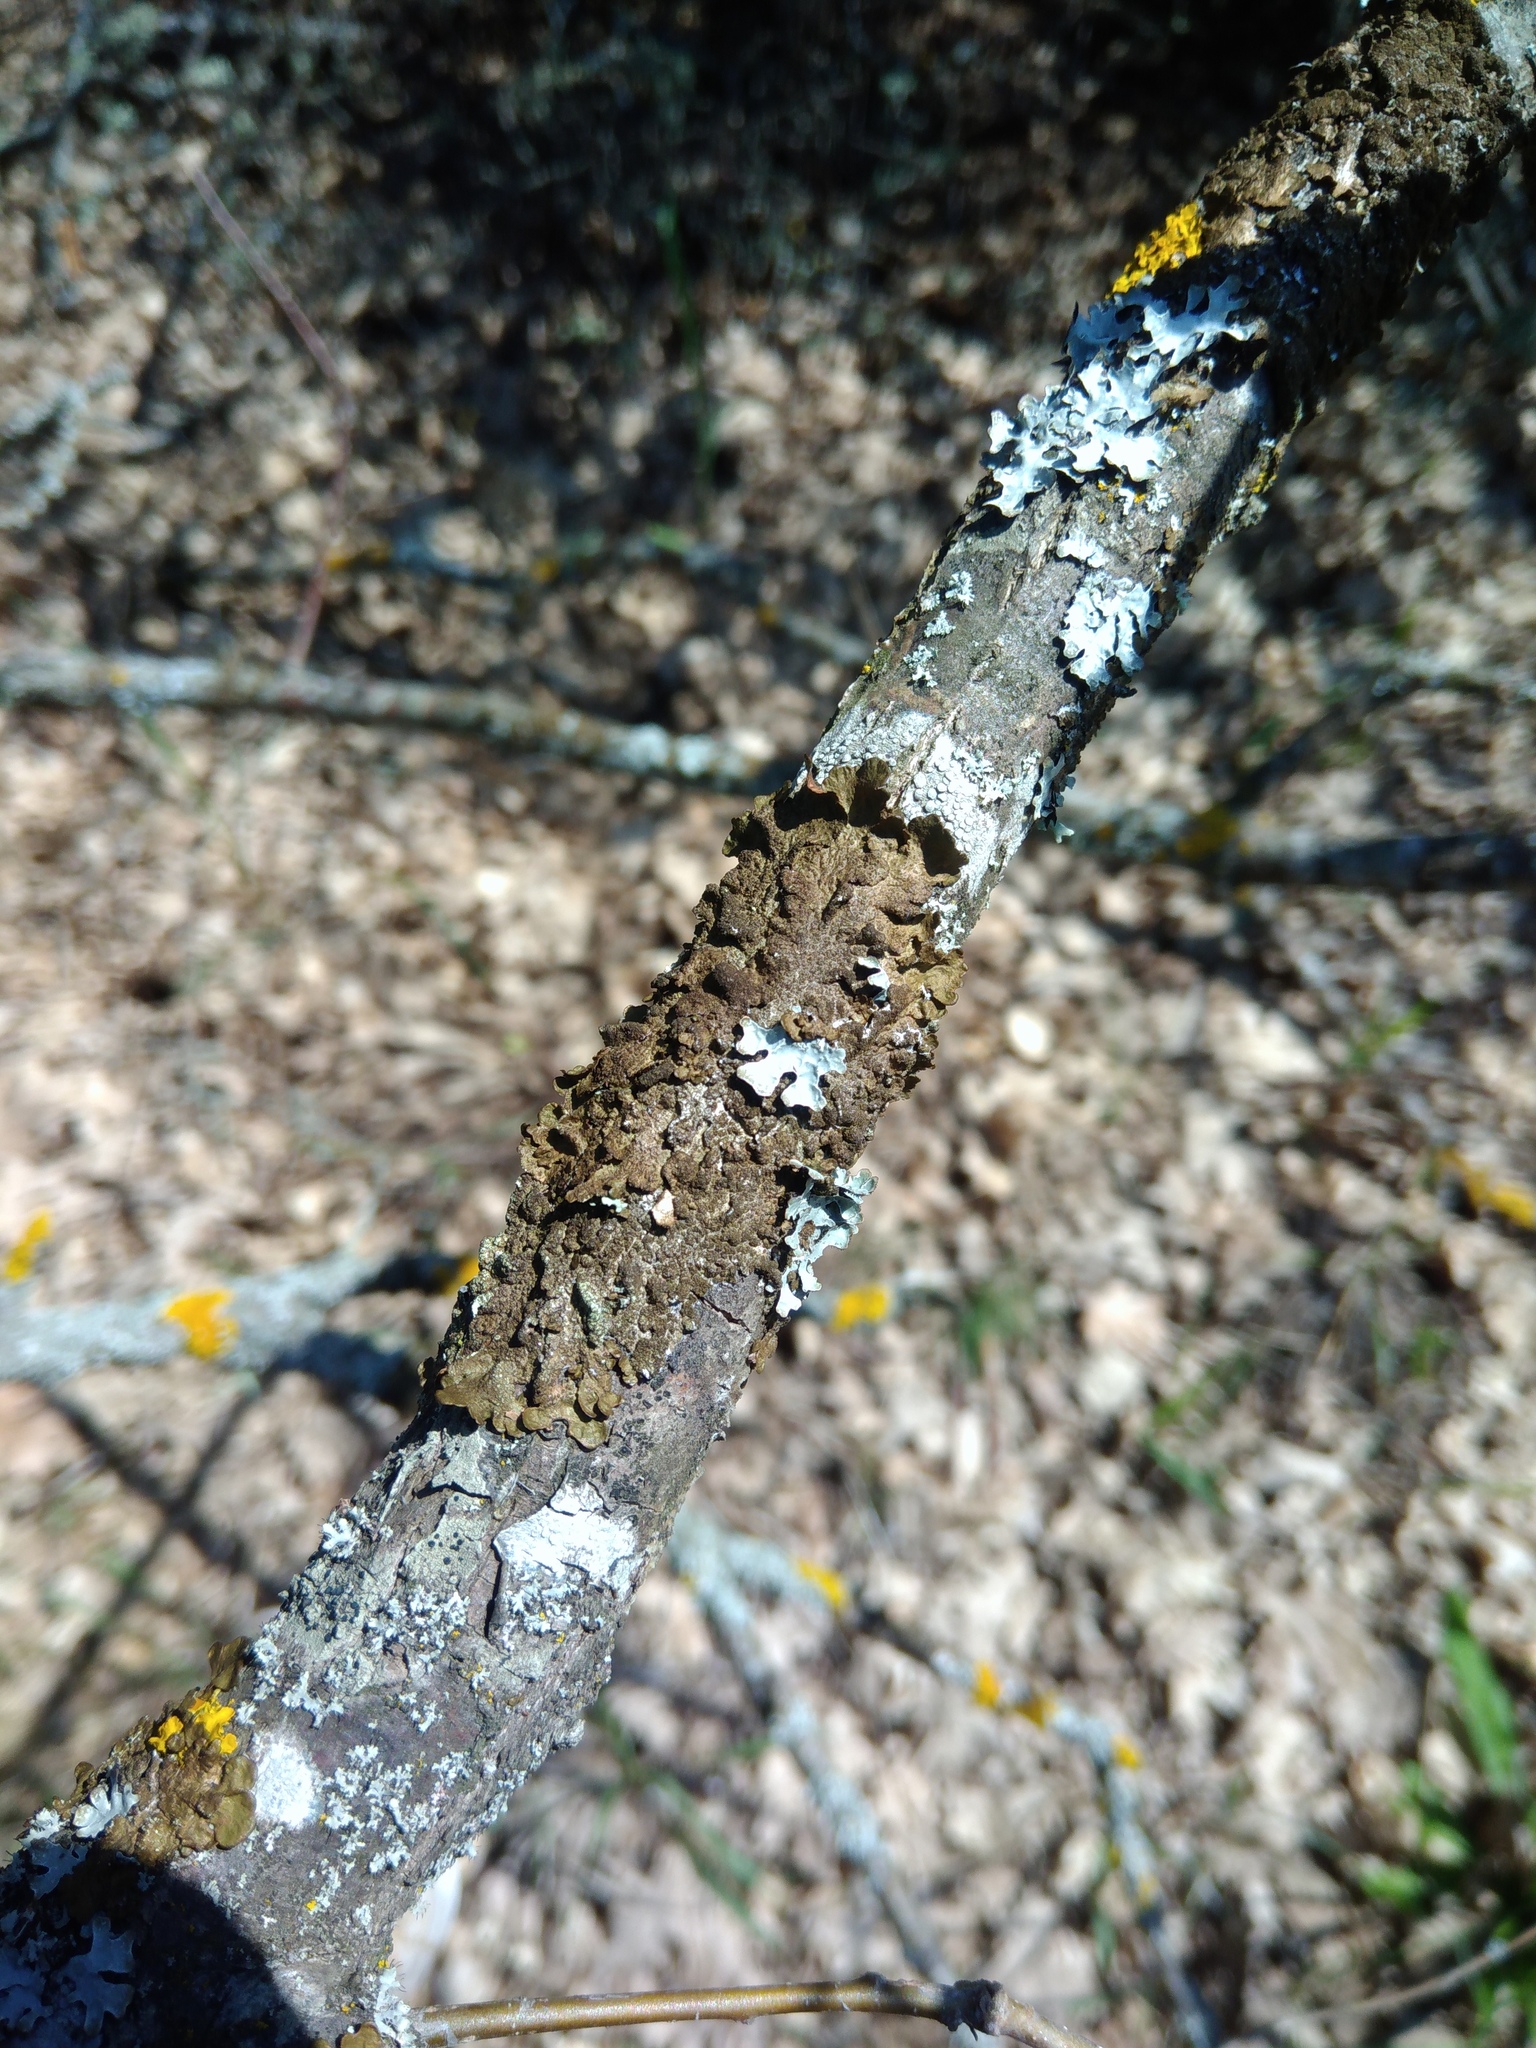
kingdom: Fungi
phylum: Ascomycota
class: Lecanoromycetes
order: Lecanorales
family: Parmeliaceae
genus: Melanelixia
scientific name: Melanelixia subaurifera
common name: Abraded camouflage lichen
